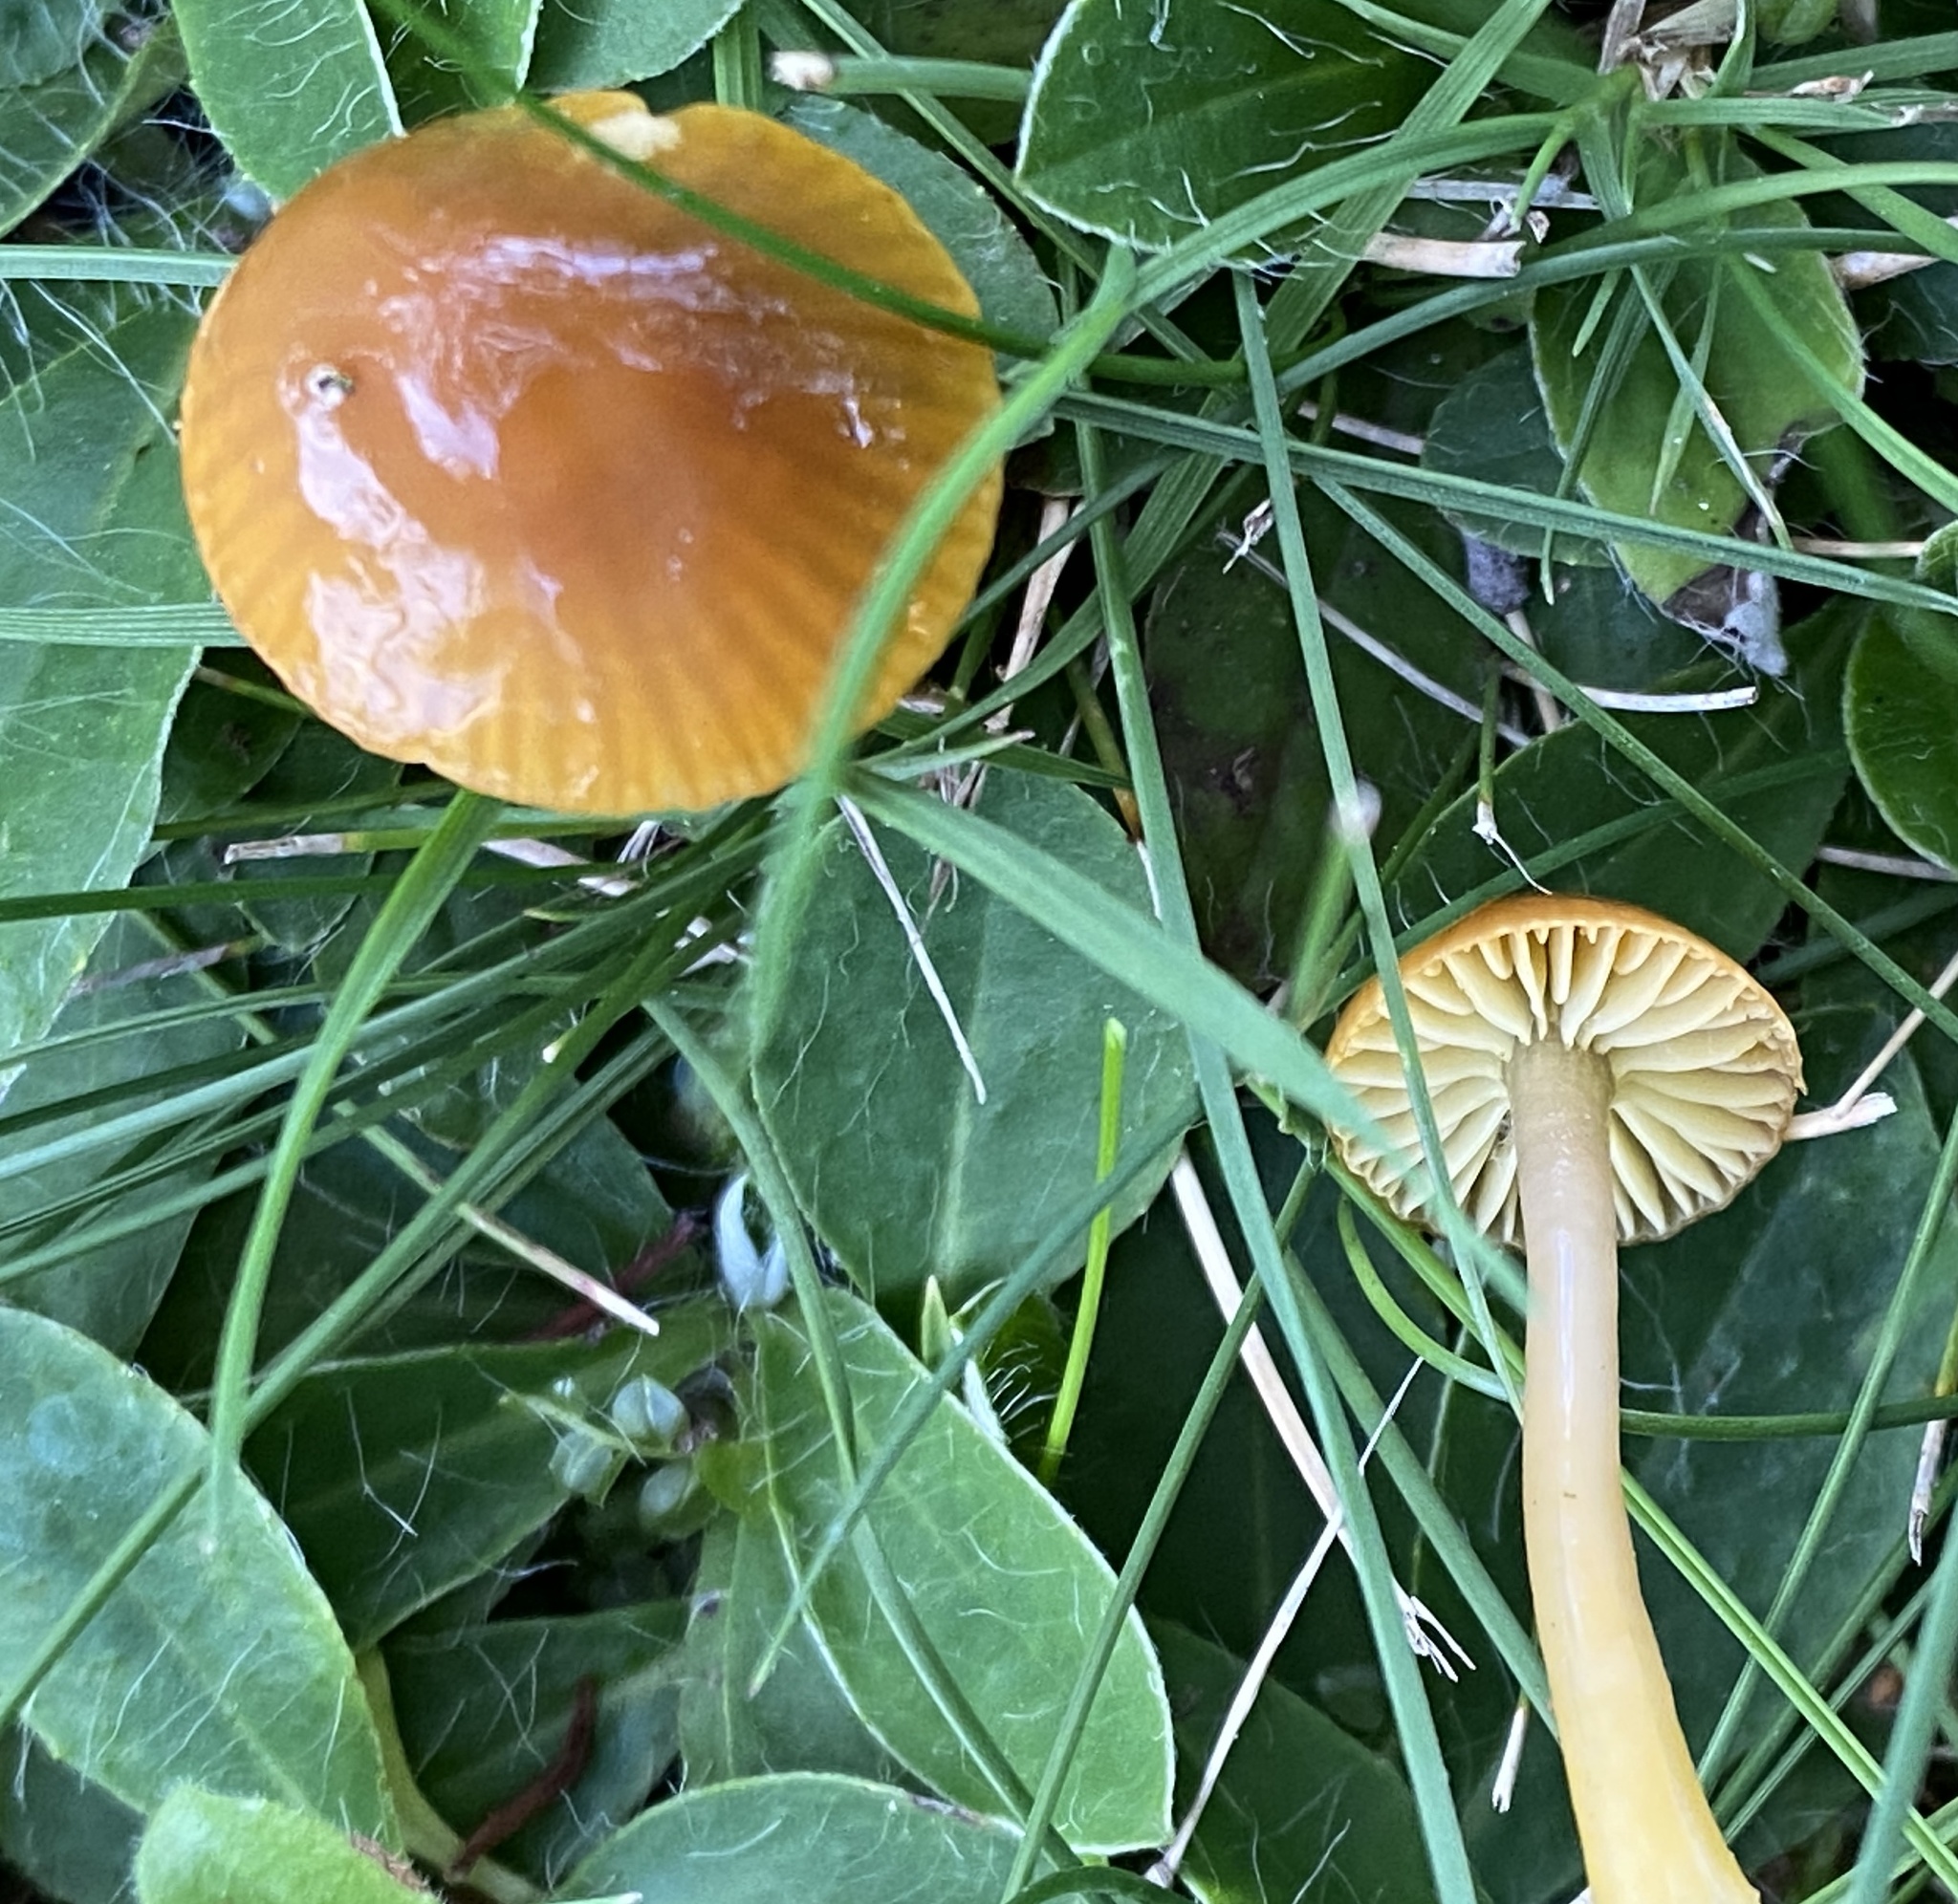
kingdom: Fungi
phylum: Basidiomycota
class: Agaricomycetes
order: Agaricales
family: Hygrophoraceae
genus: Gliophorus
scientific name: Gliophorus psittacinus
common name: Parrot wax-cap
